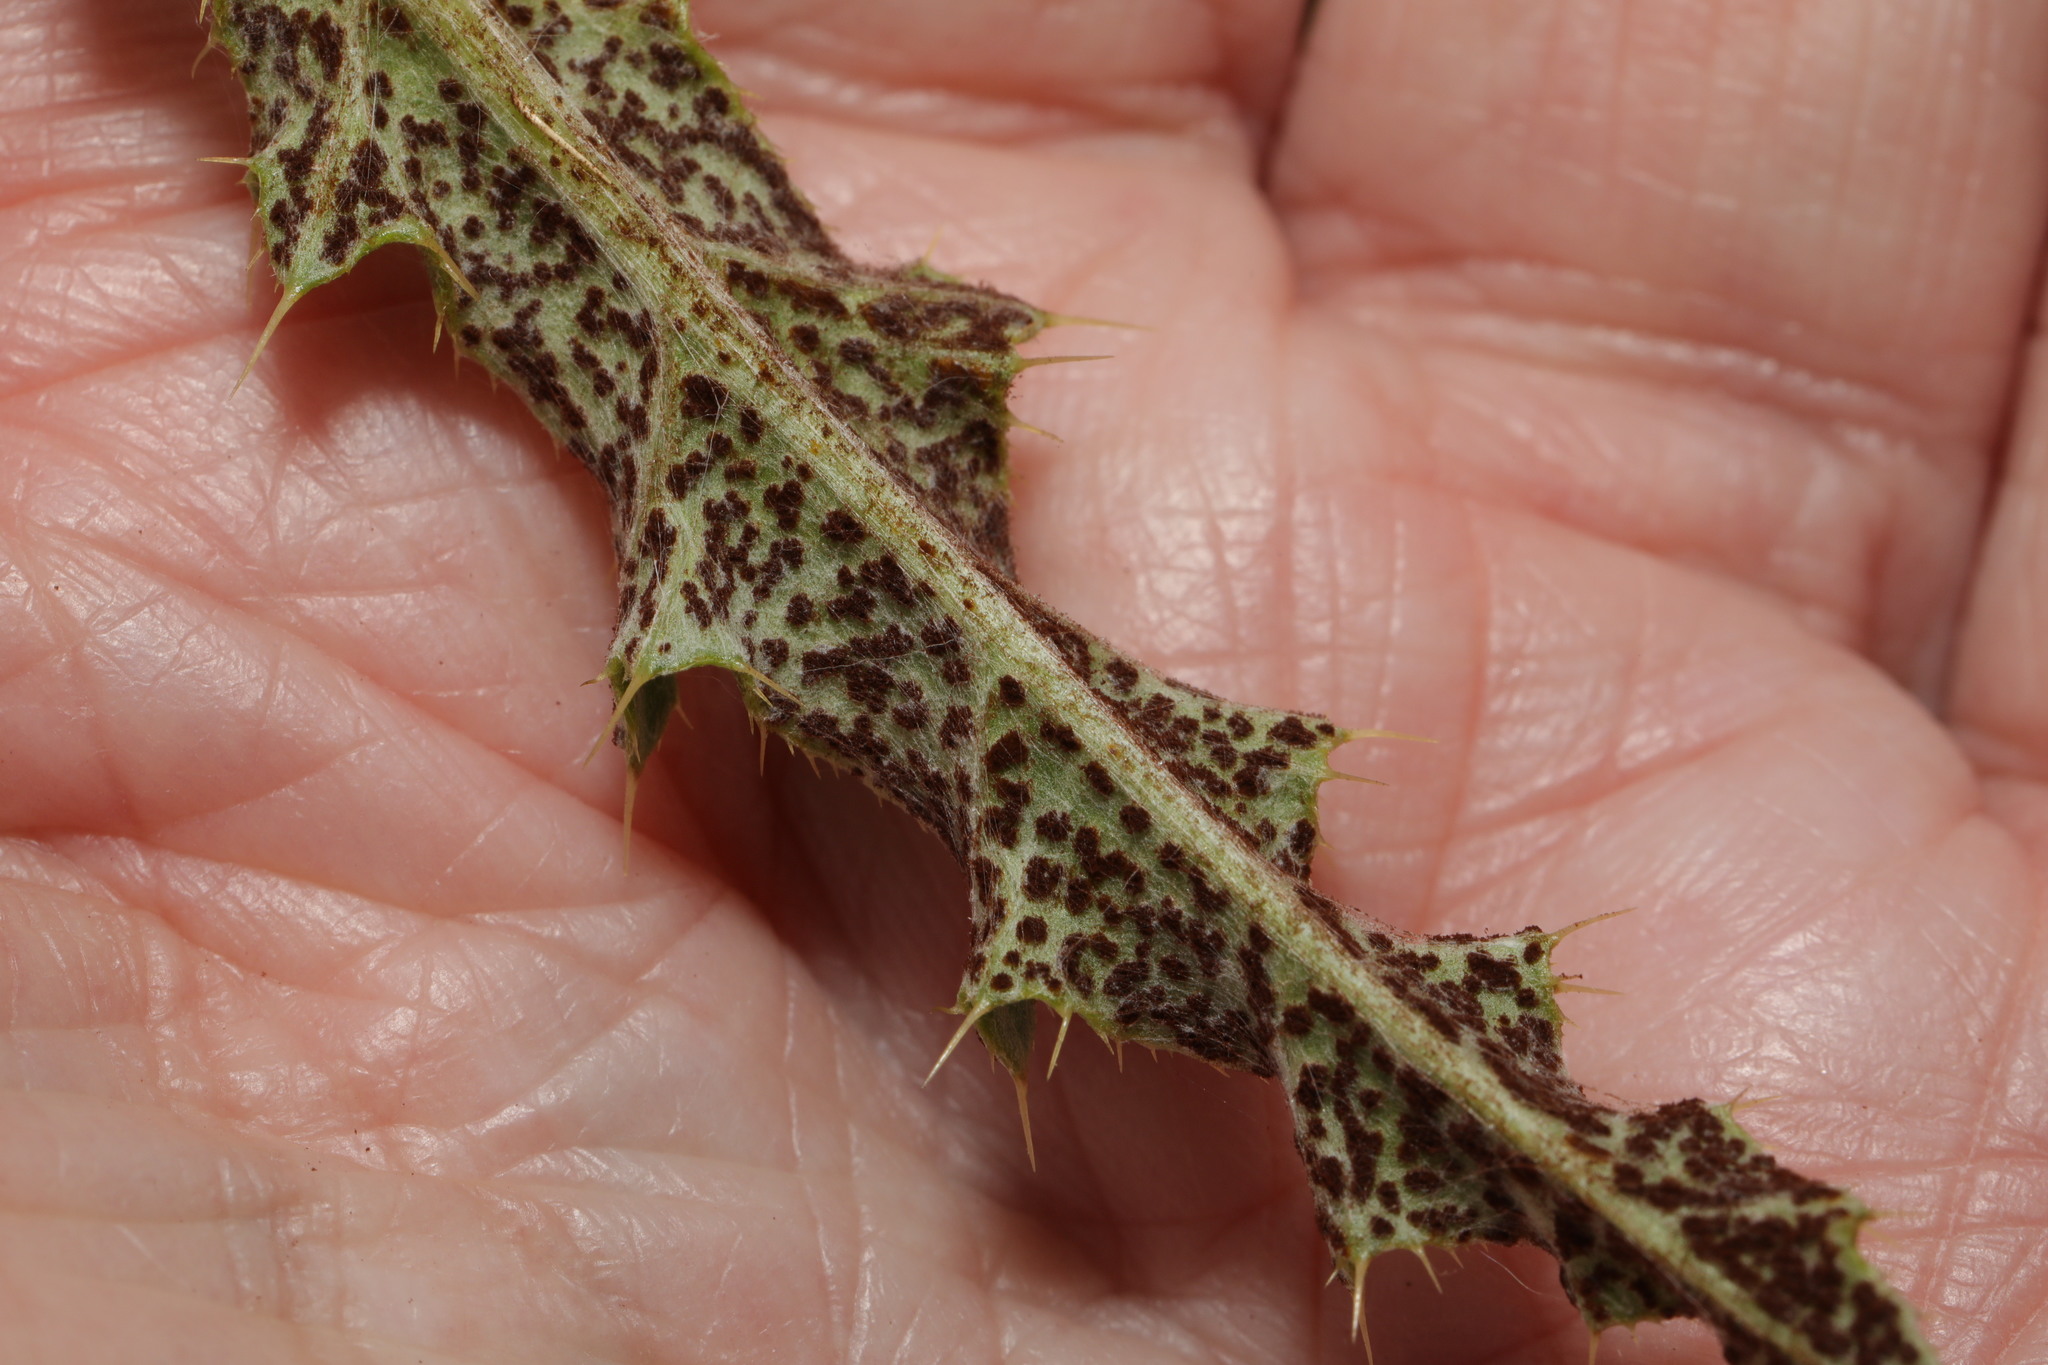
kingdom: Fungi
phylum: Basidiomycota
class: Pucciniomycetes
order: Pucciniales
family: Pucciniaceae
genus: Puccinia
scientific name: Puccinia suaveolens
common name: Thistle rust
